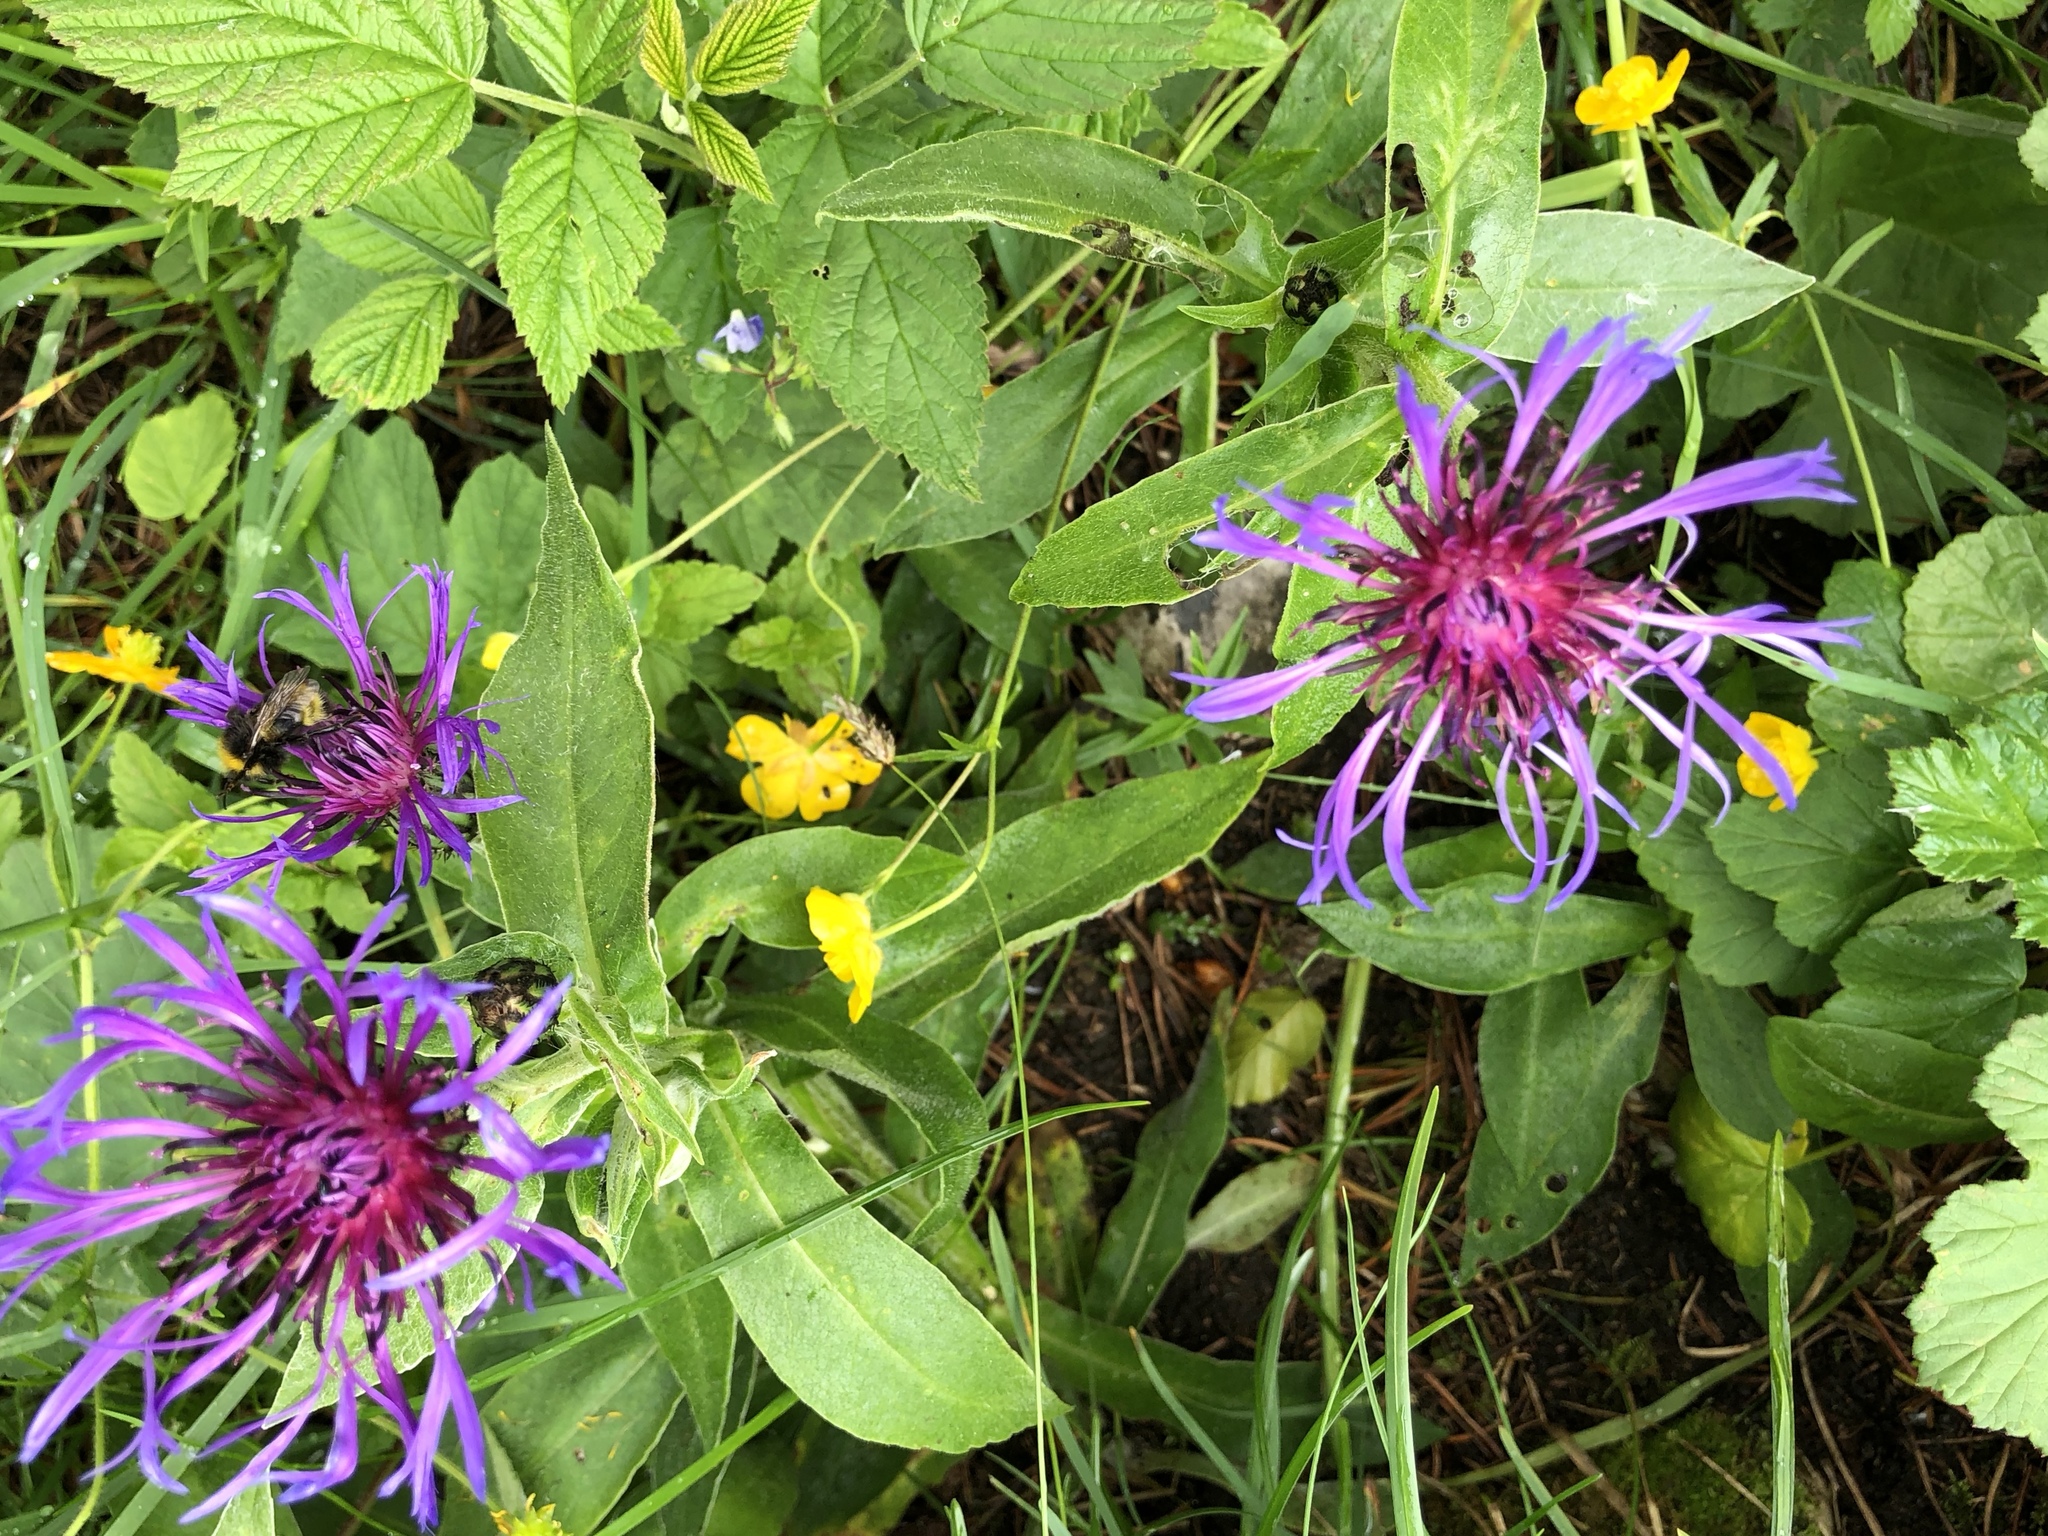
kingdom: Plantae
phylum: Tracheophyta
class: Magnoliopsida
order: Asterales
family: Asteraceae
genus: Centaurea
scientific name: Centaurea montana
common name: Perennial cornflower
